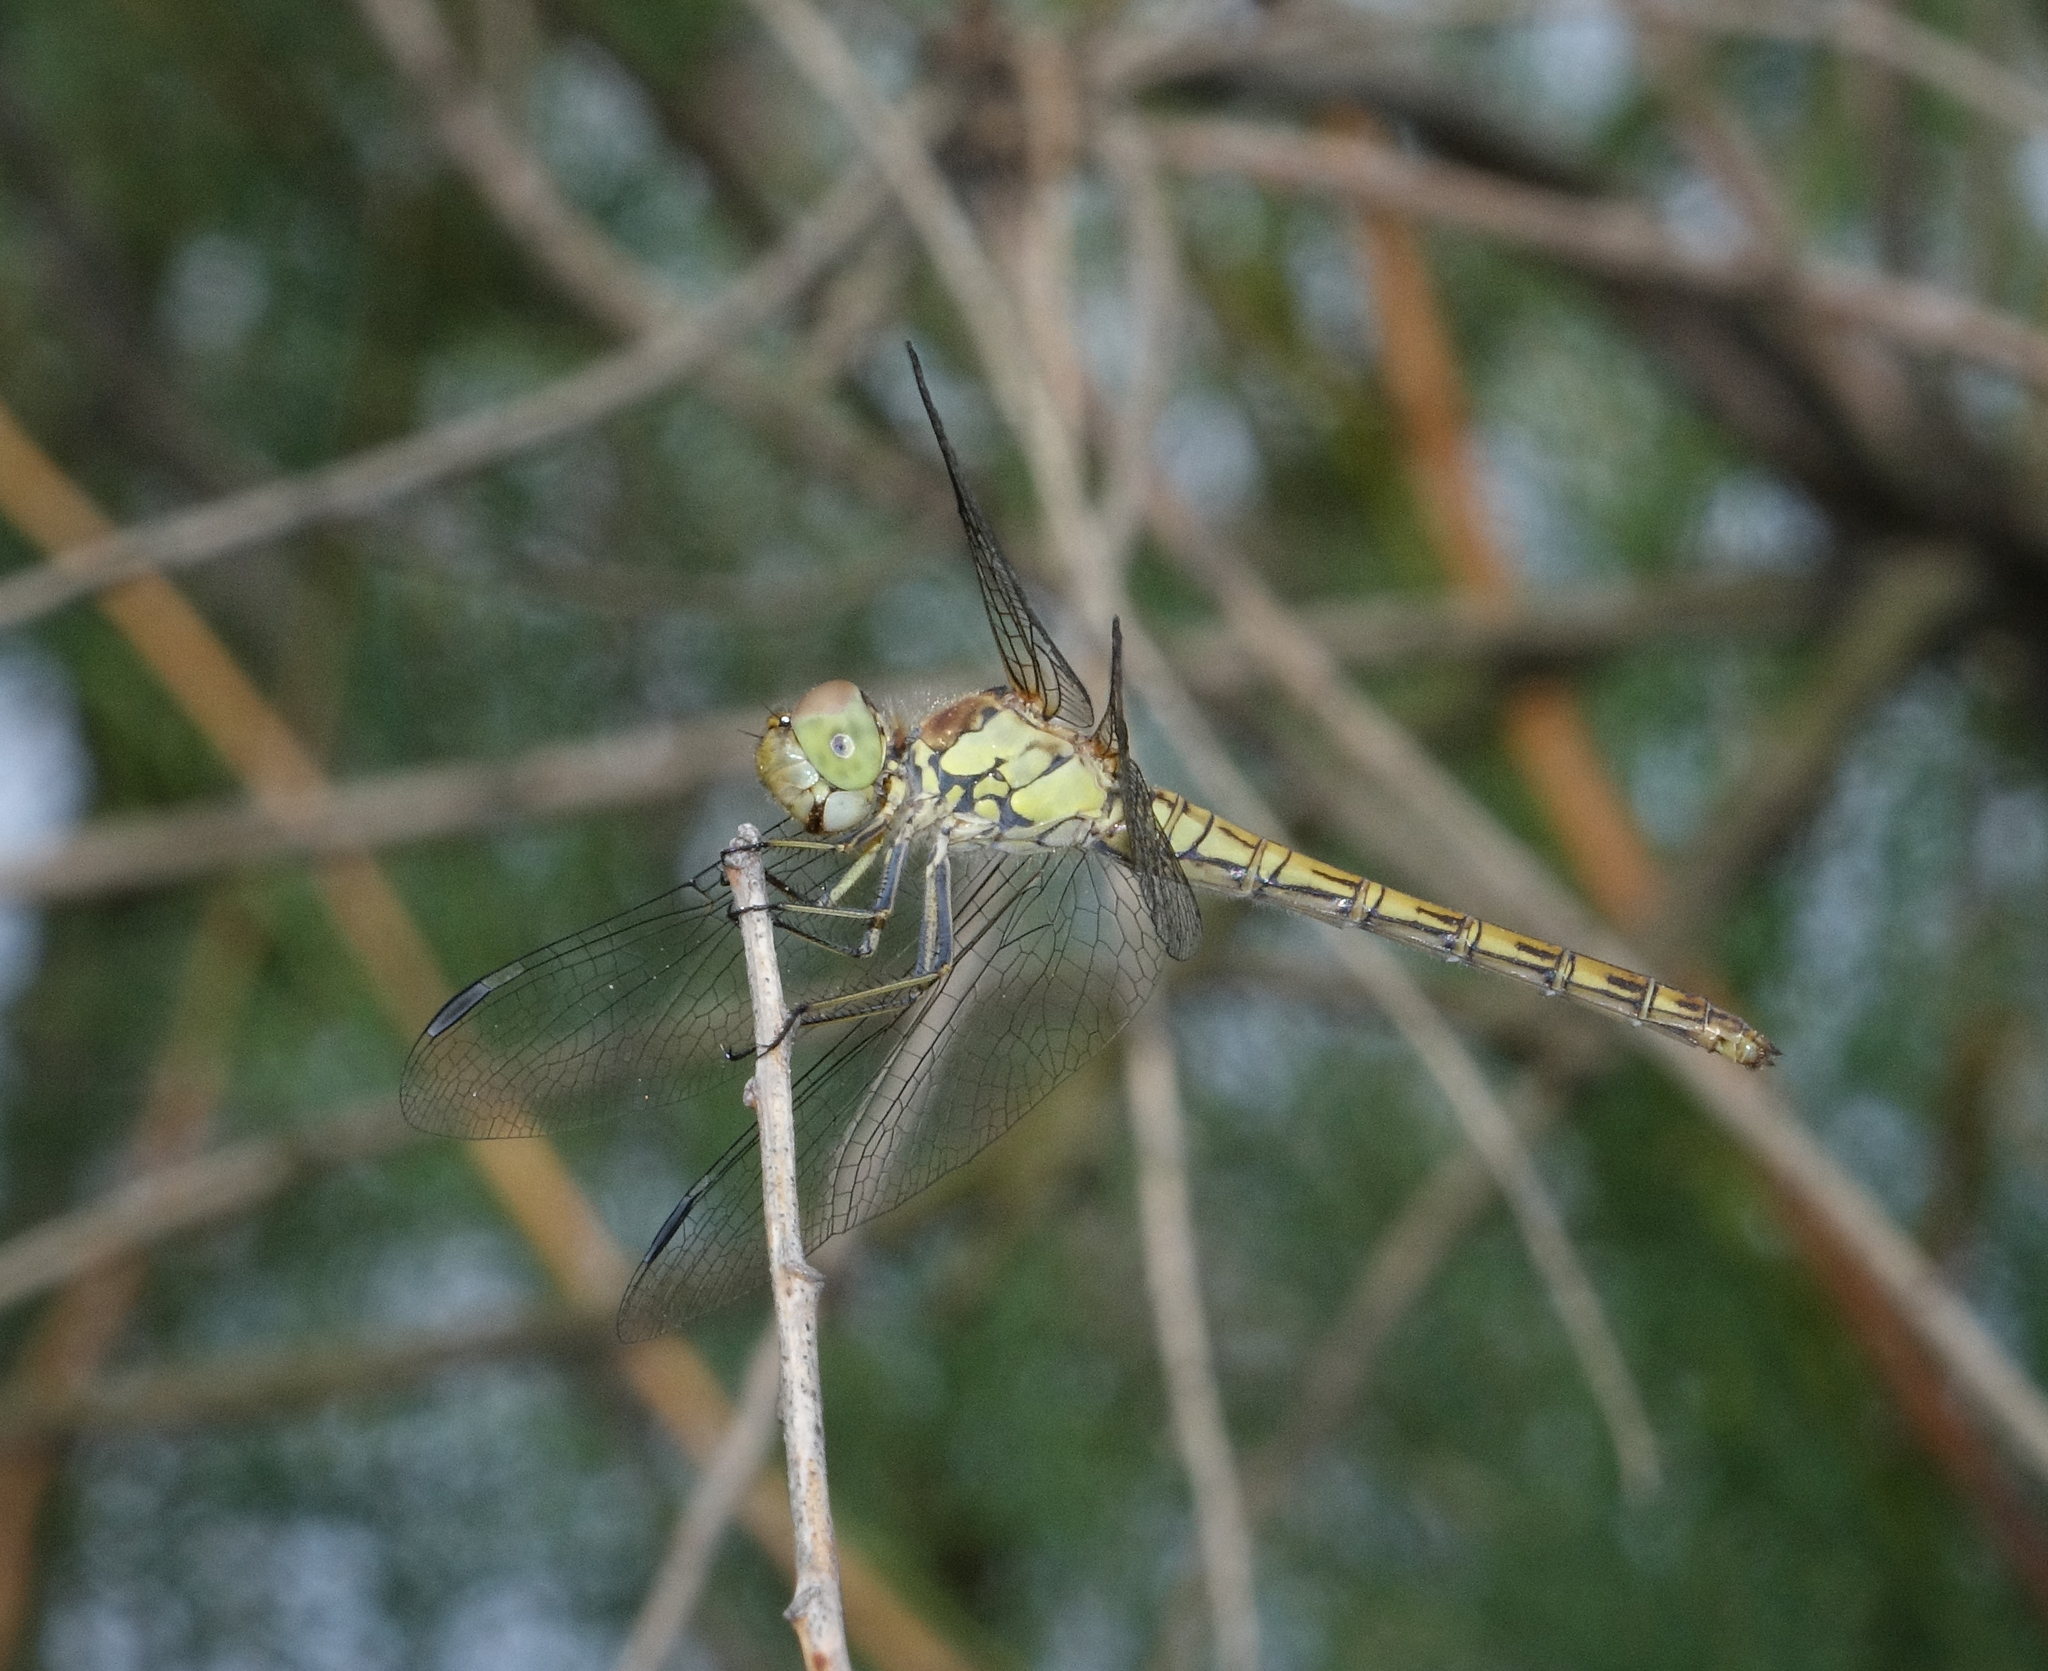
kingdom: Animalia
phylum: Arthropoda
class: Insecta
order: Odonata
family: Libellulidae
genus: Sympetrum
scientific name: Sympetrum striolatum
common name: Common darter
